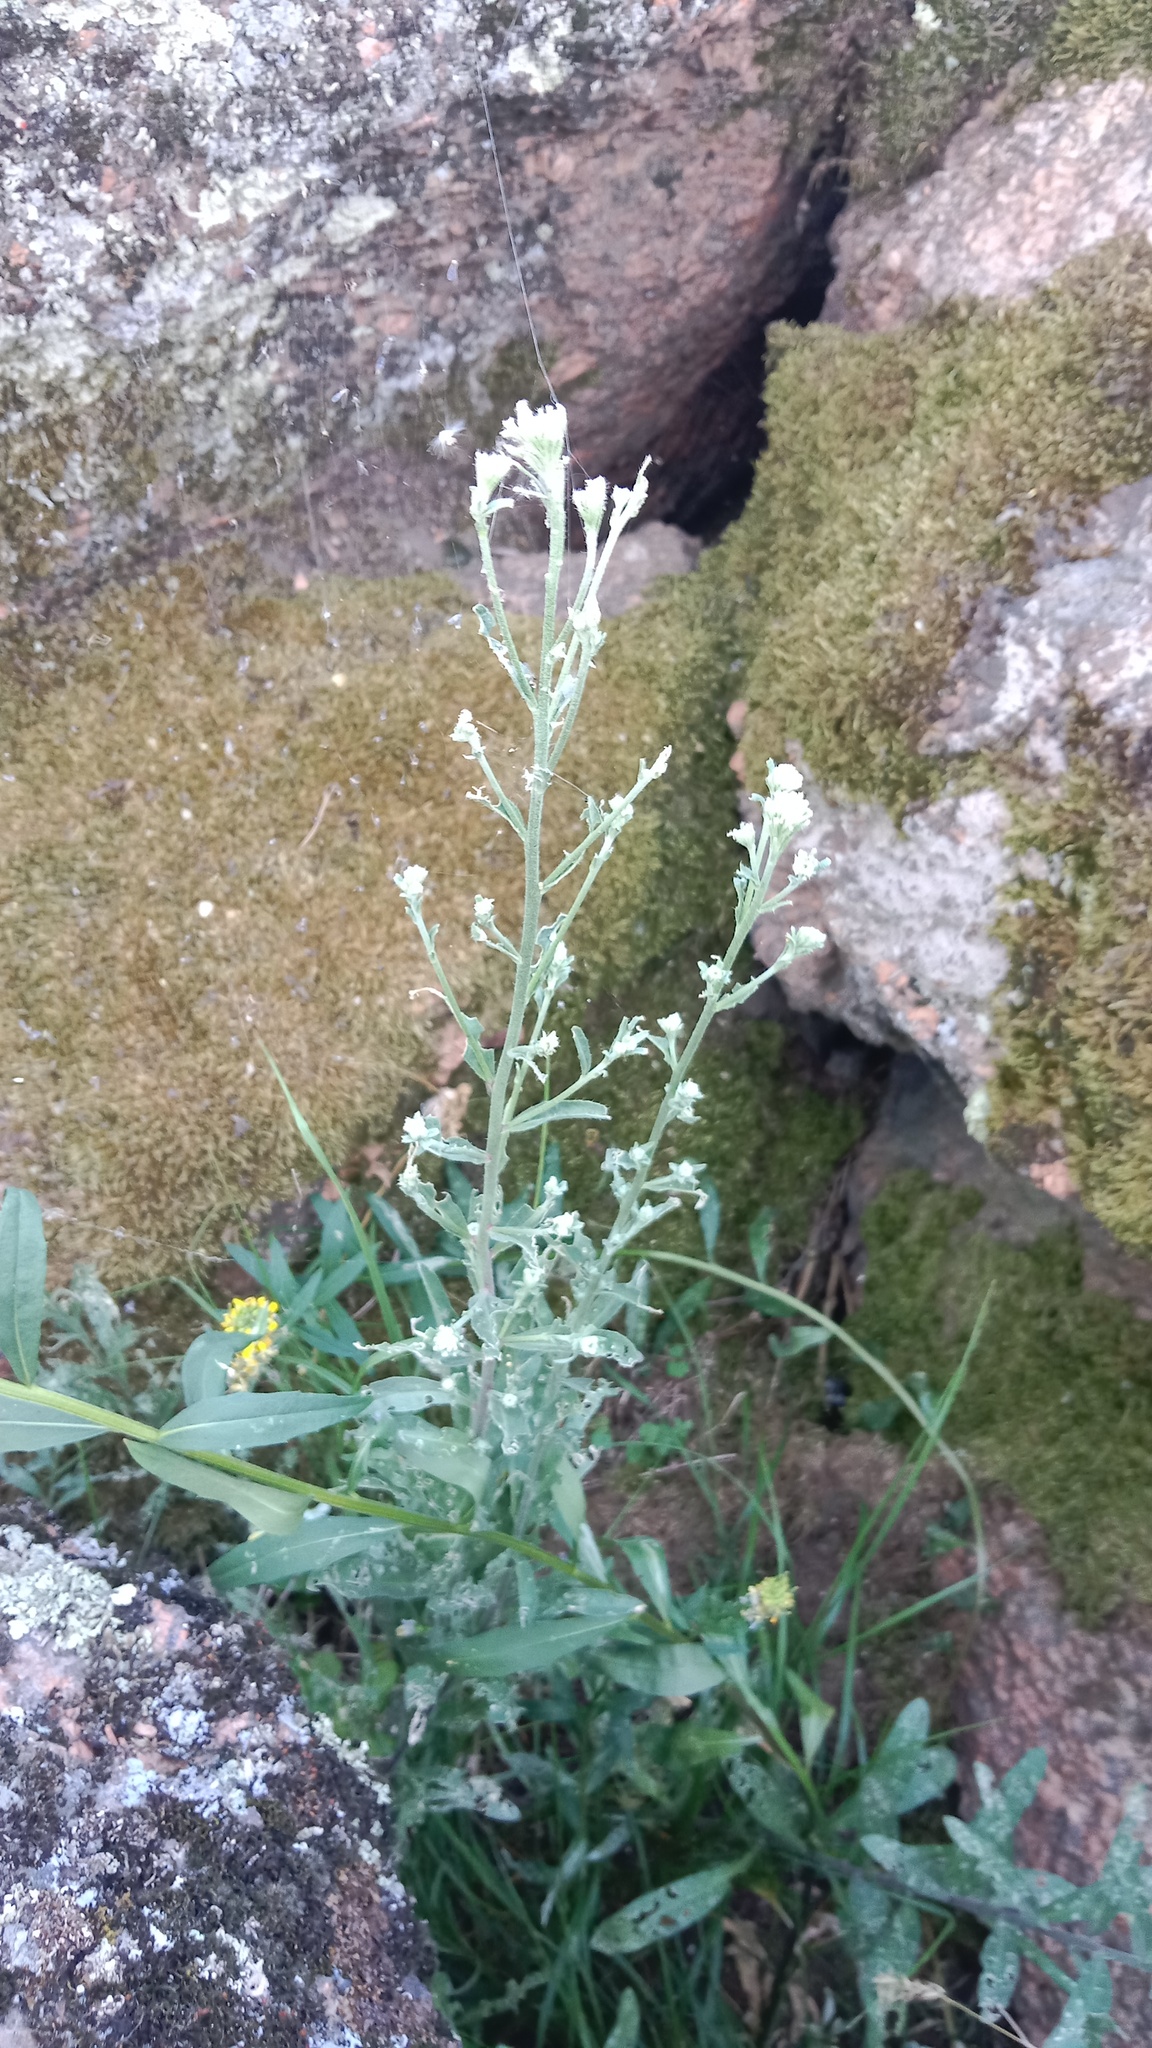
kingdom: Plantae
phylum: Tracheophyta
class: Magnoliopsida
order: Brassicales
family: Brassicaceae
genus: Erysimum
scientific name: Erysimum marschallianum
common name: Hard wallflower
